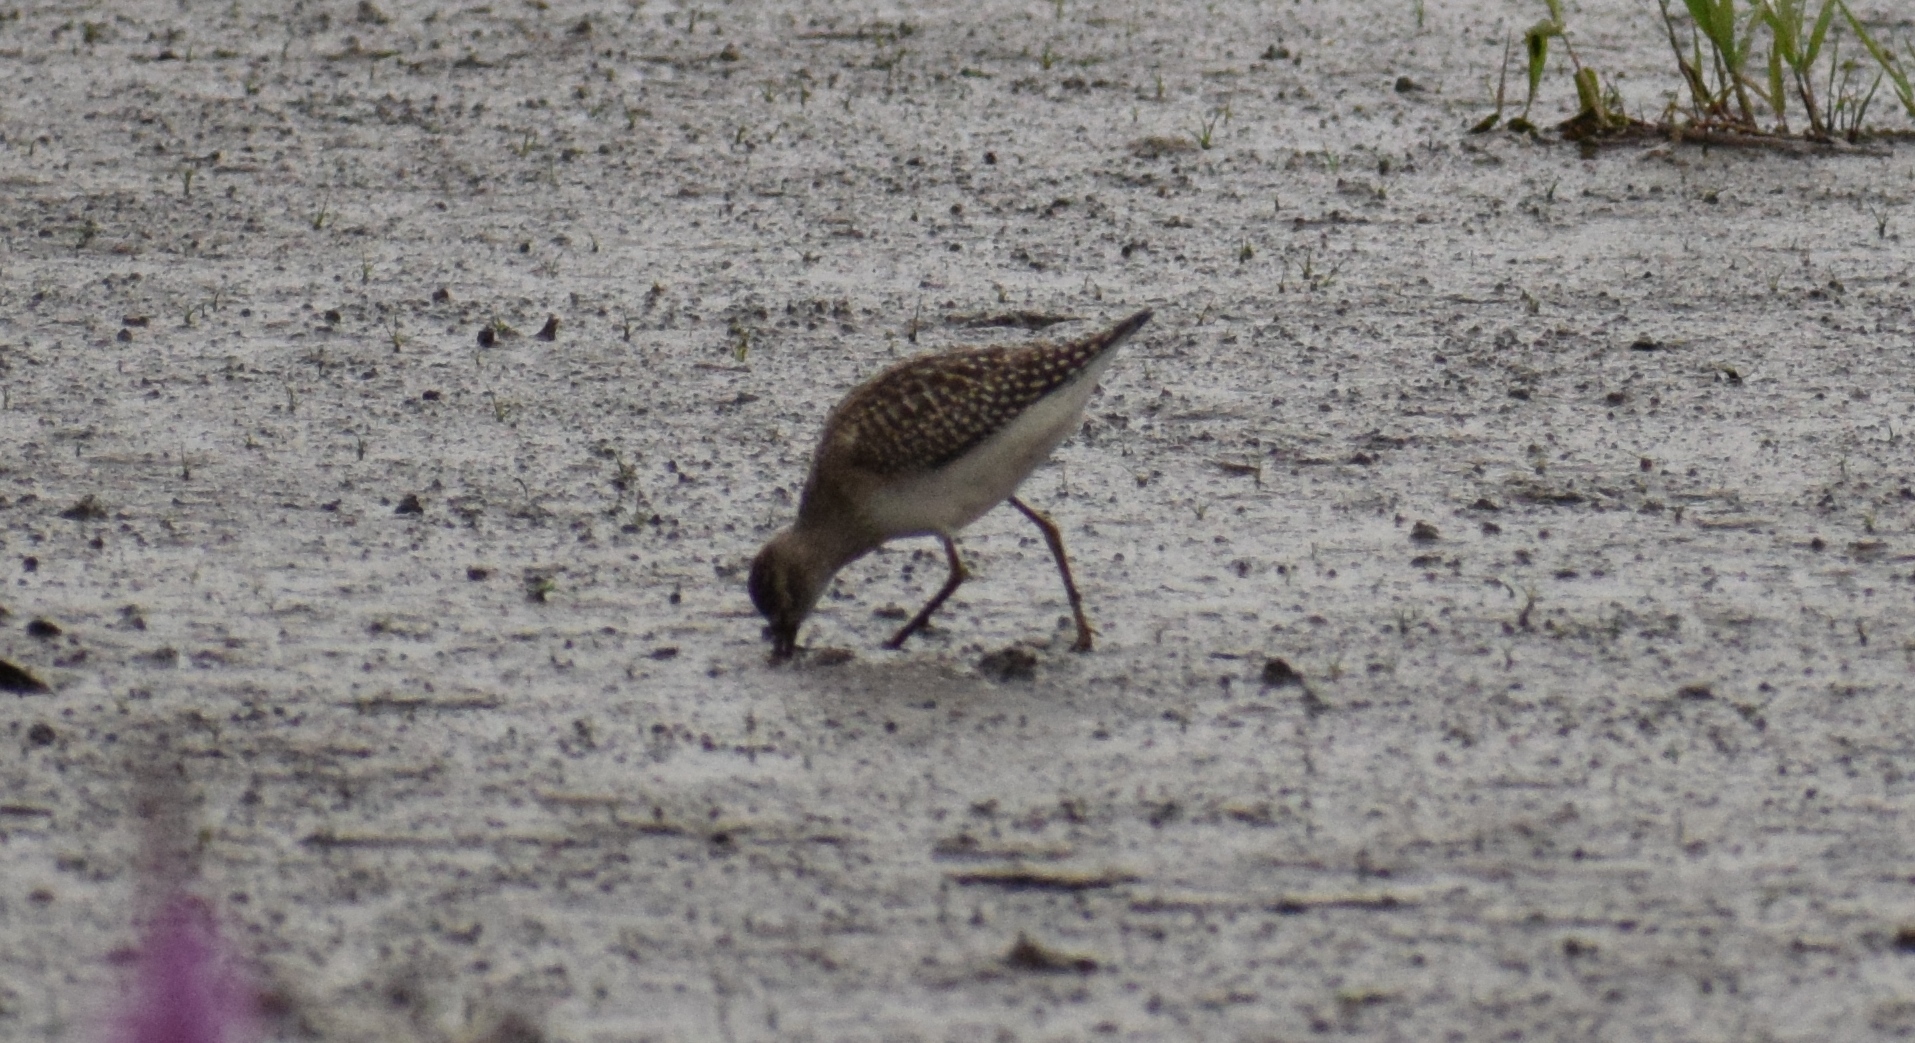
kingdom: Animalia
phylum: Chordata
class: Aves
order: Charadriiformes
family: Scolopacidae
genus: Tringa
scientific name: Tringa glareola
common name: Wood sandpiper
